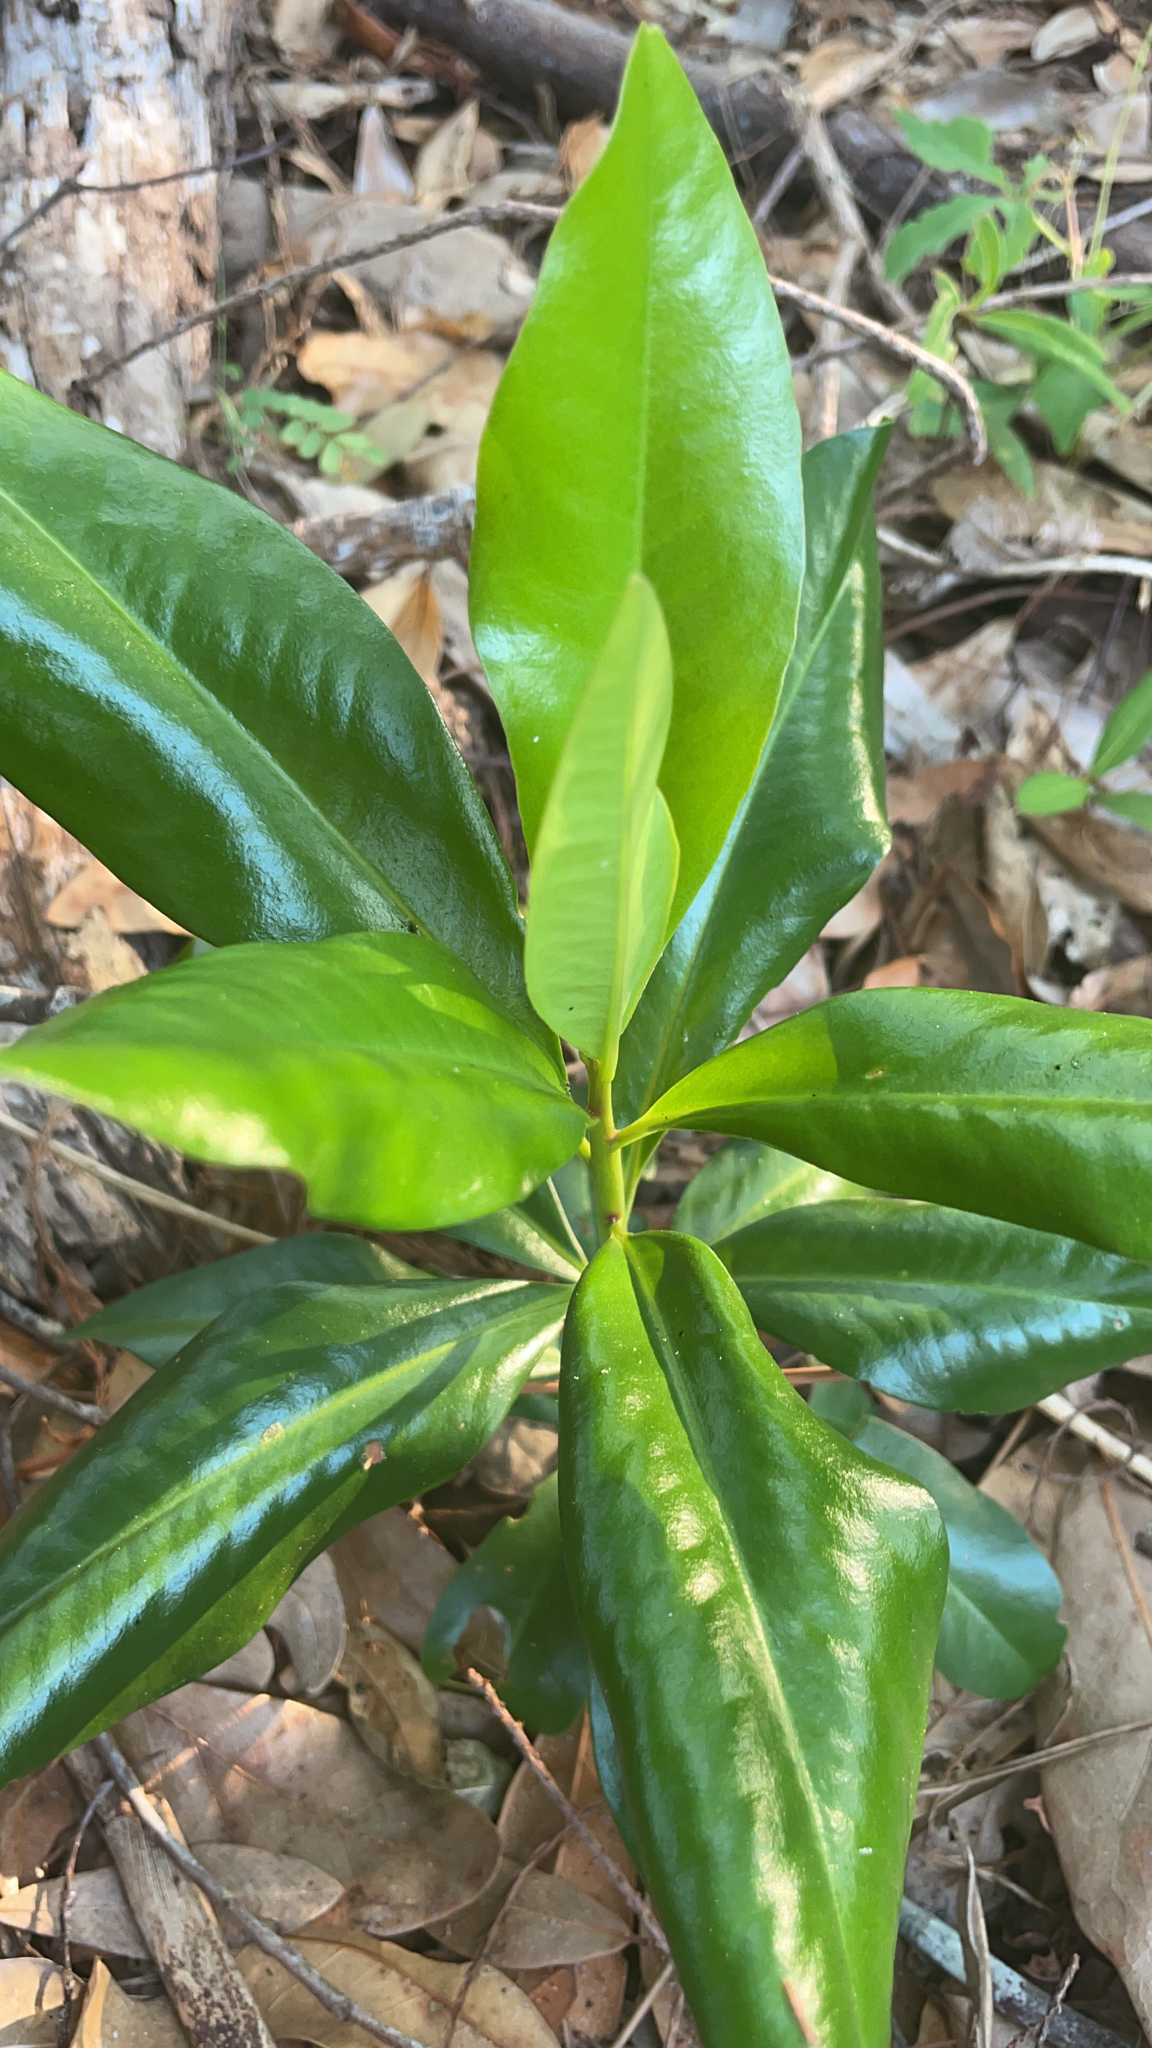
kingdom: Plantae
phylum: Tracheophyta
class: Magnoliopsida
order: Ericales
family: Primulaceae
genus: Myrsine
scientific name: Myrsine floridana
